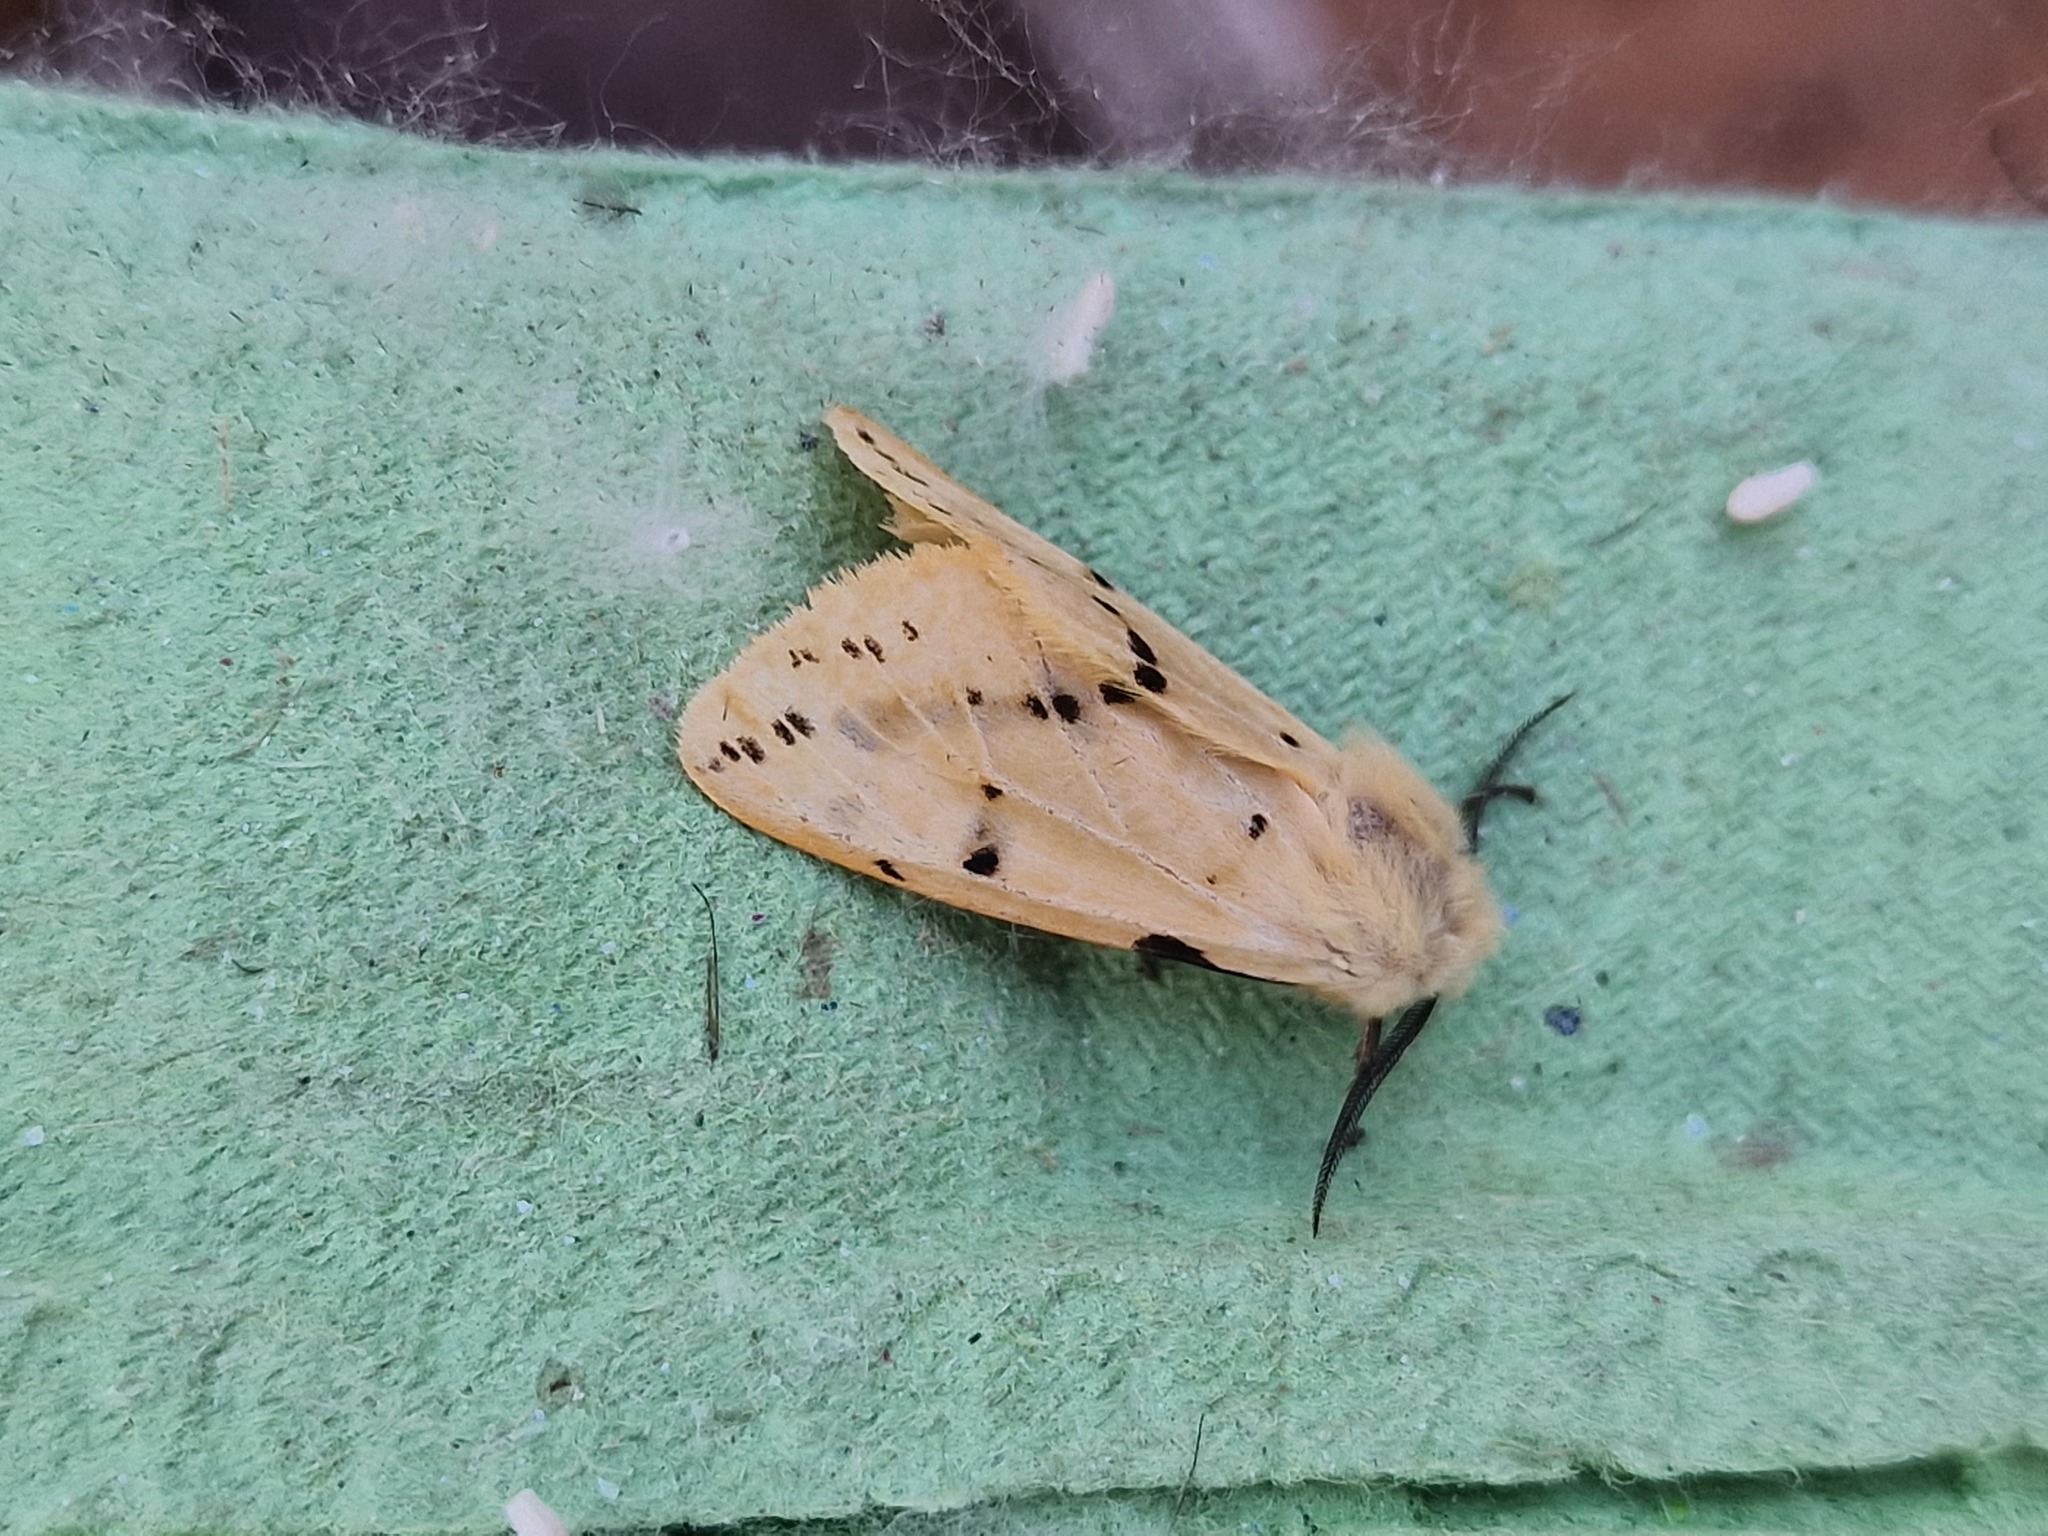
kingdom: Animalia
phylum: Arthropoda
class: Insecta
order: Lepidoptera
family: Erebidae
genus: Spilarctia
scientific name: Spilarctia lutea
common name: Buff ermine
